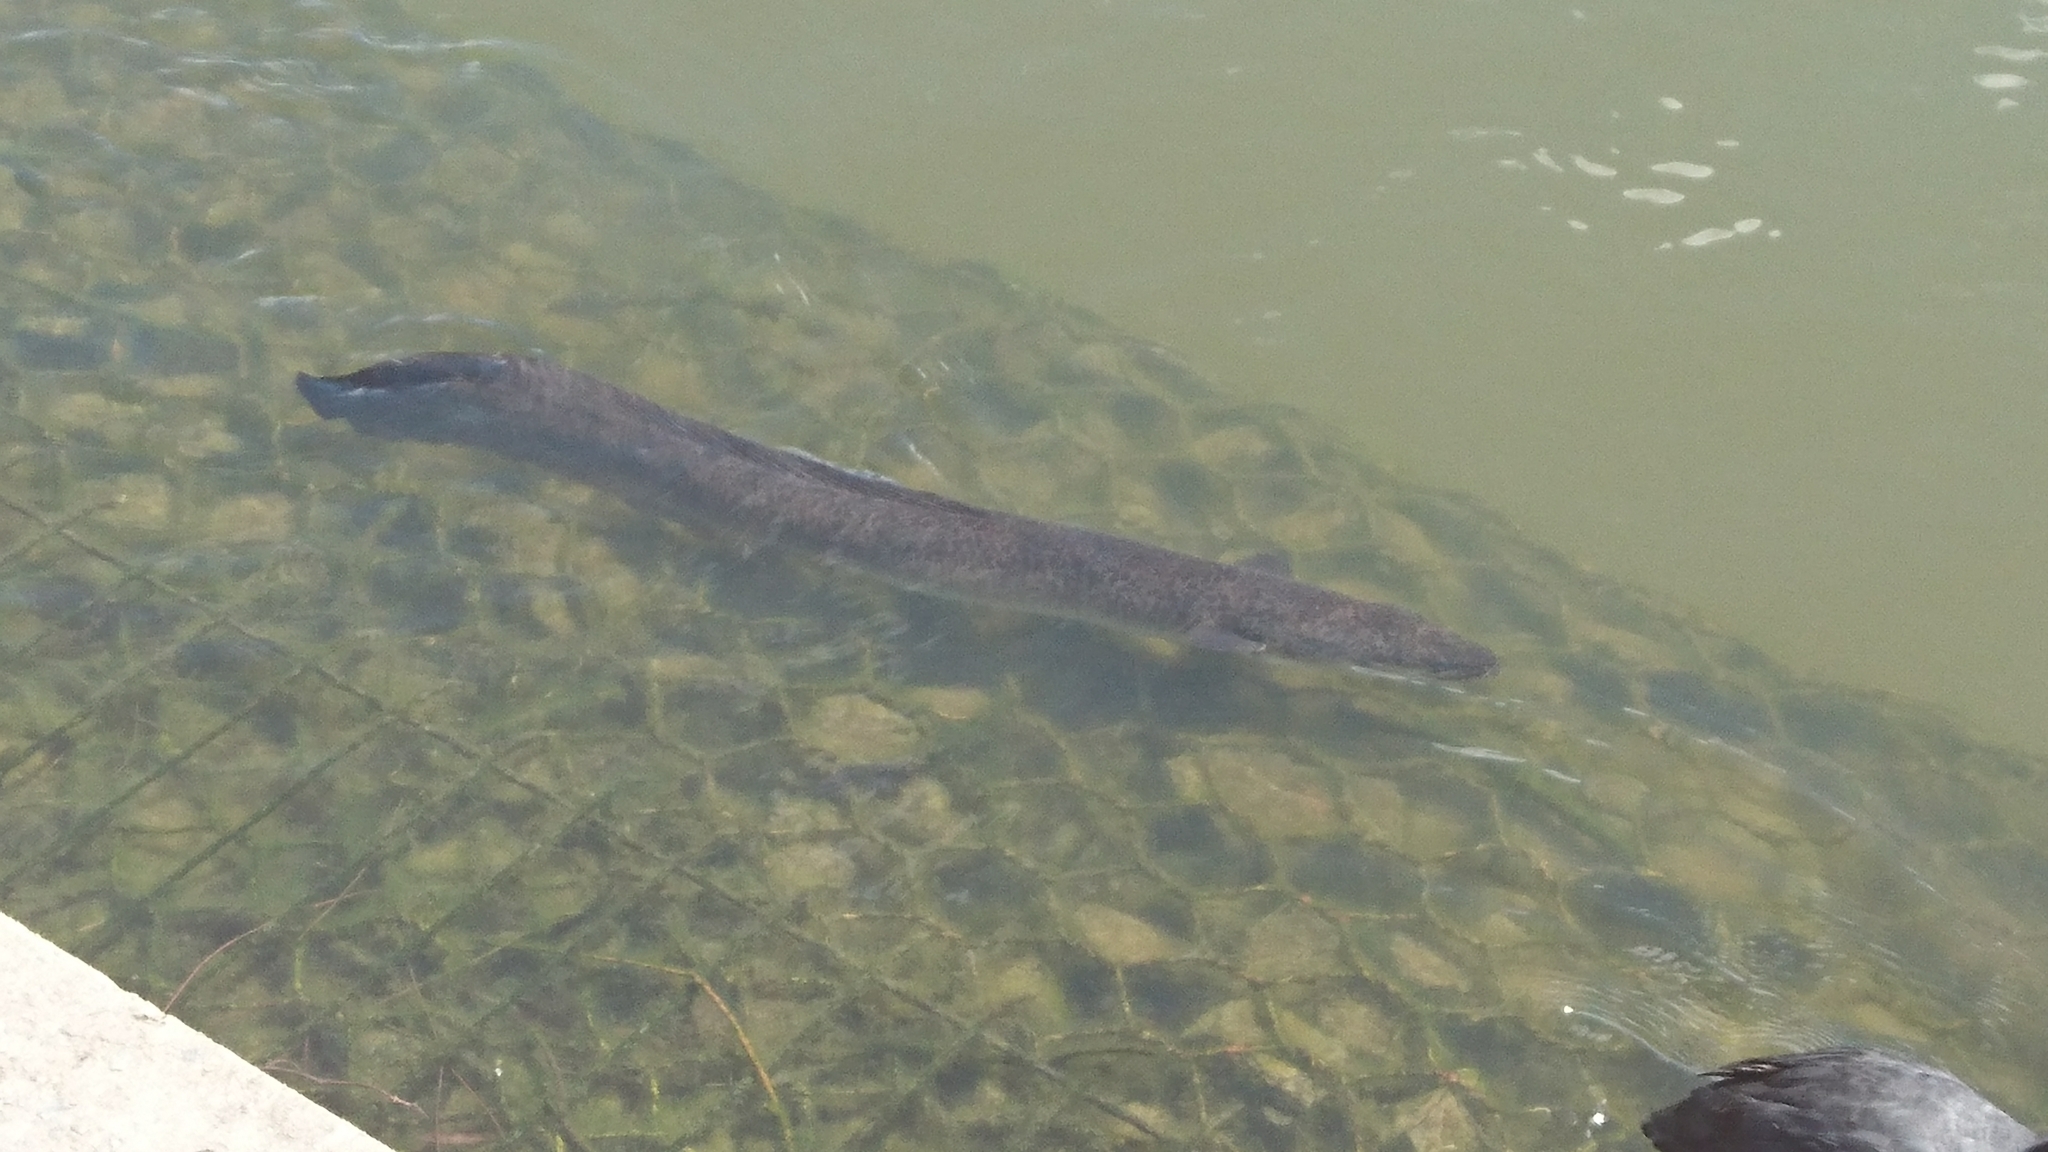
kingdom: Animalia
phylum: Chordata
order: Anguilliformes
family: Anguillidae
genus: Anguilla
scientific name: Anguilla reinhardtii
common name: Longfin eel
